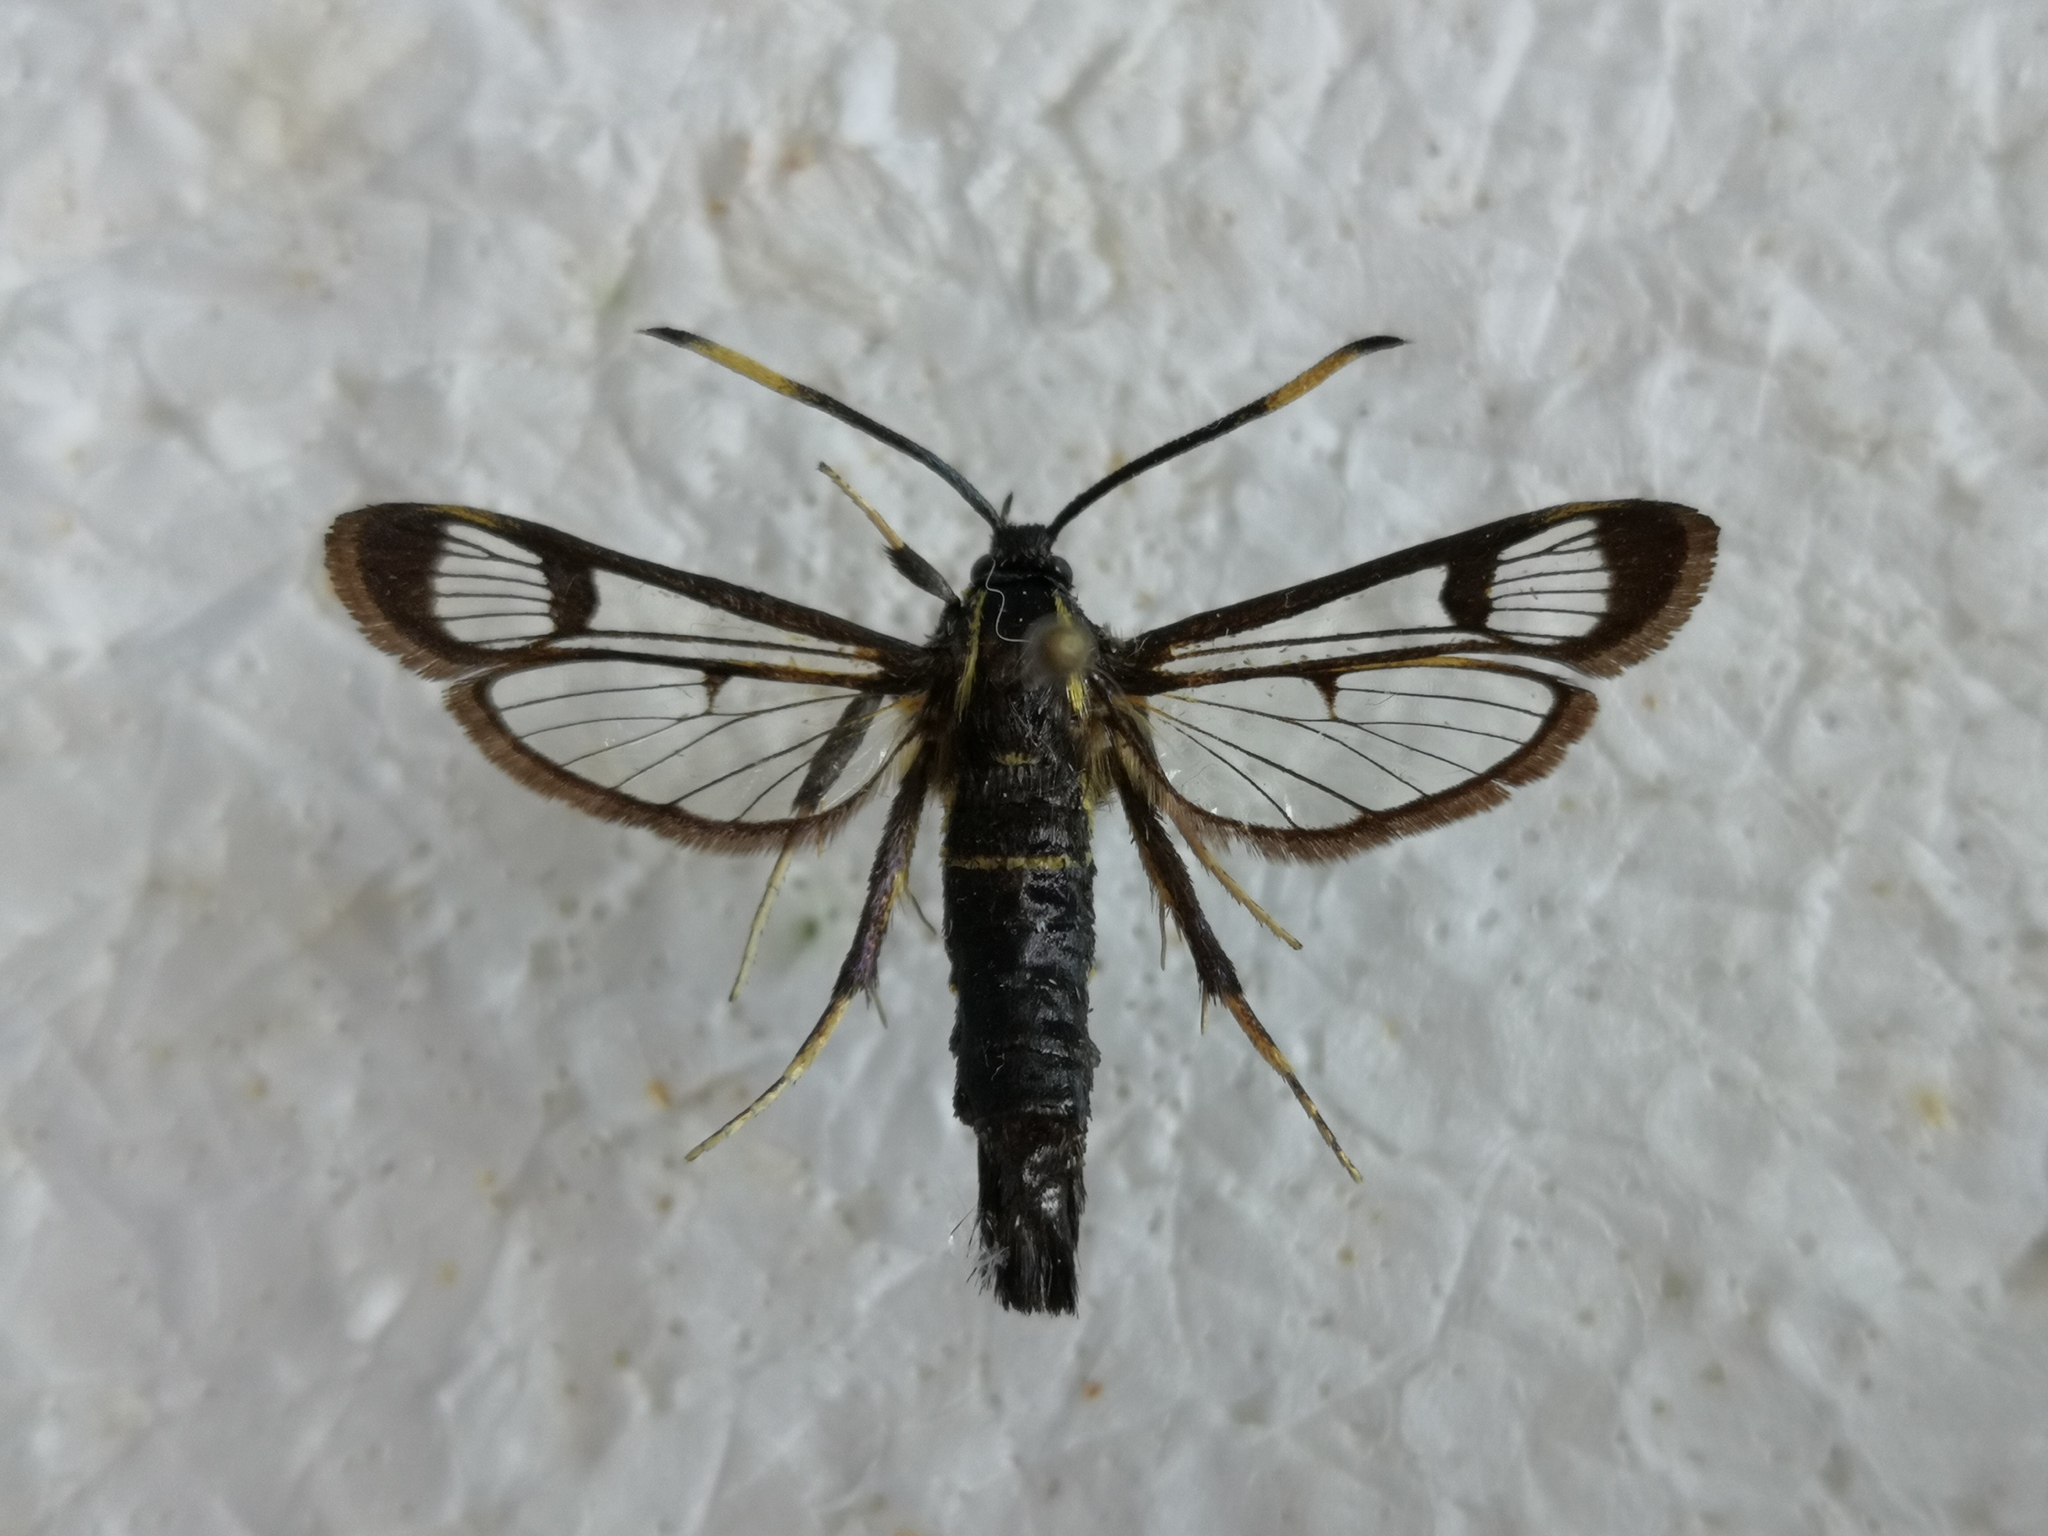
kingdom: Animalia
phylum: Arthropoda
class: Insecta
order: Lepidoptera
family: Sesiidae
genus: Synanthedon
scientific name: Synanthedon spheciformis
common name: White-barred clearwing
